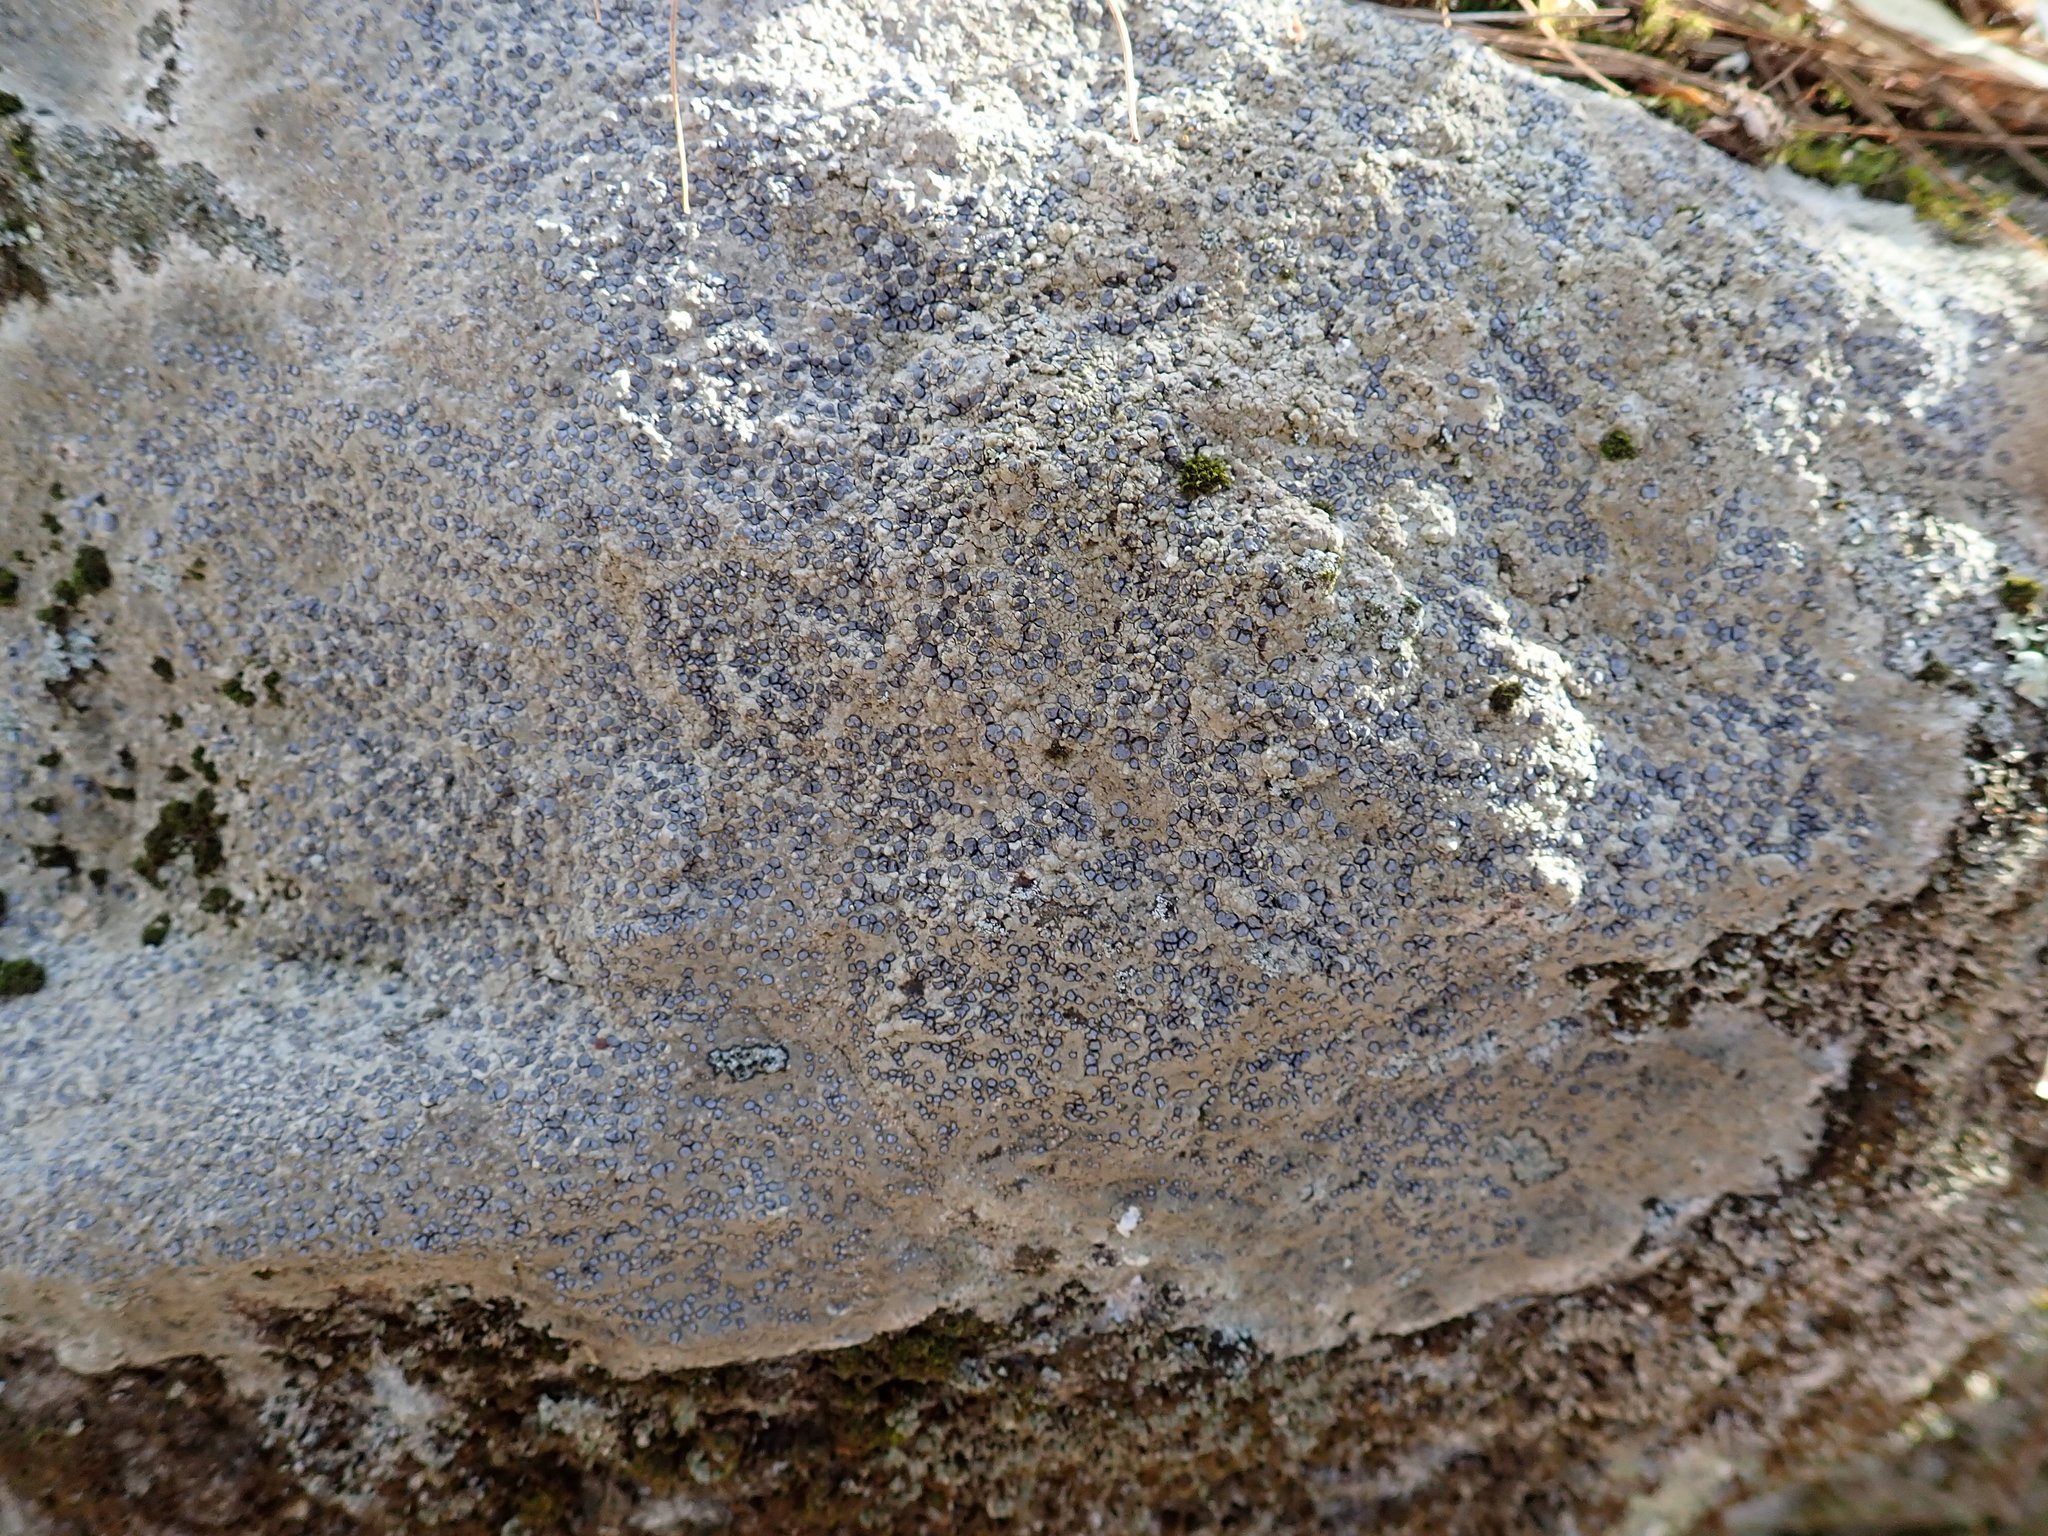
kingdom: Fungi
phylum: Ascomycota
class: Lecanoromycetes
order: Lecideales
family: Lecideaceae
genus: Porpidia
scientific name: Porpidia albocaerulescens
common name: Smokey-eyed boulder lichen
